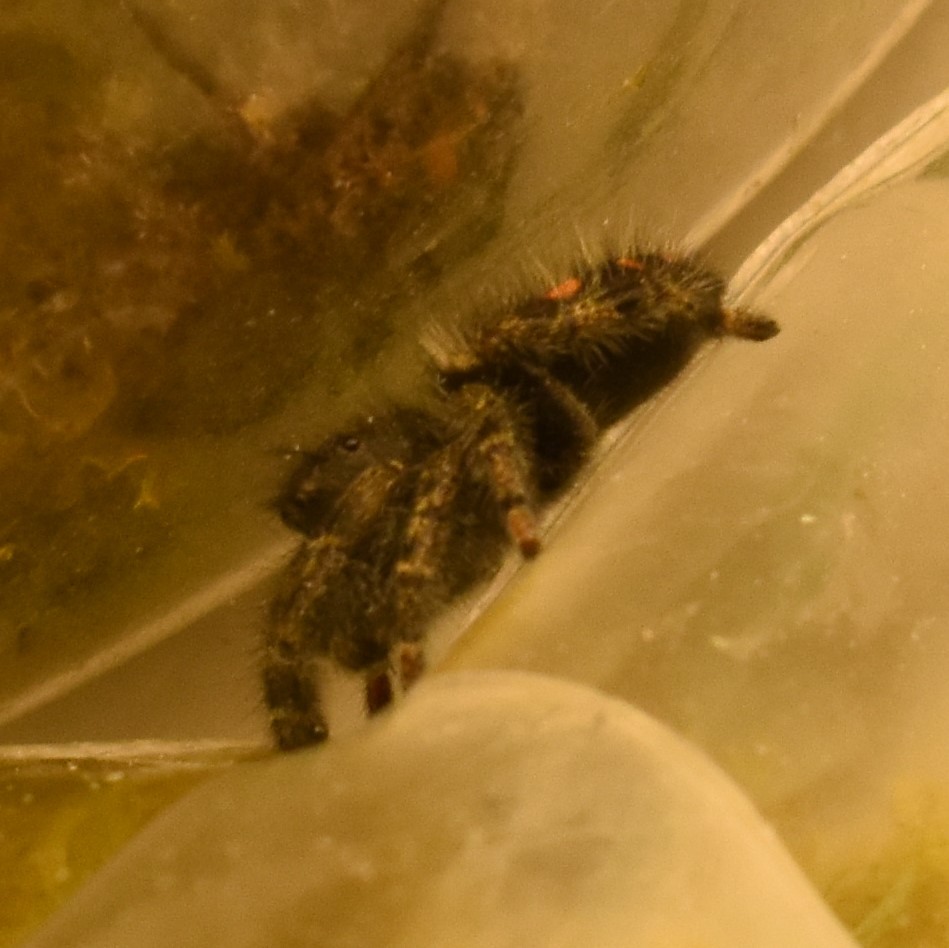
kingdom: Animalia
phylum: Arthropoda
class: Arachnida
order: Araneae
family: Salticidae
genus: Phidippus
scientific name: Phidippus audax
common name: Bold jumper
